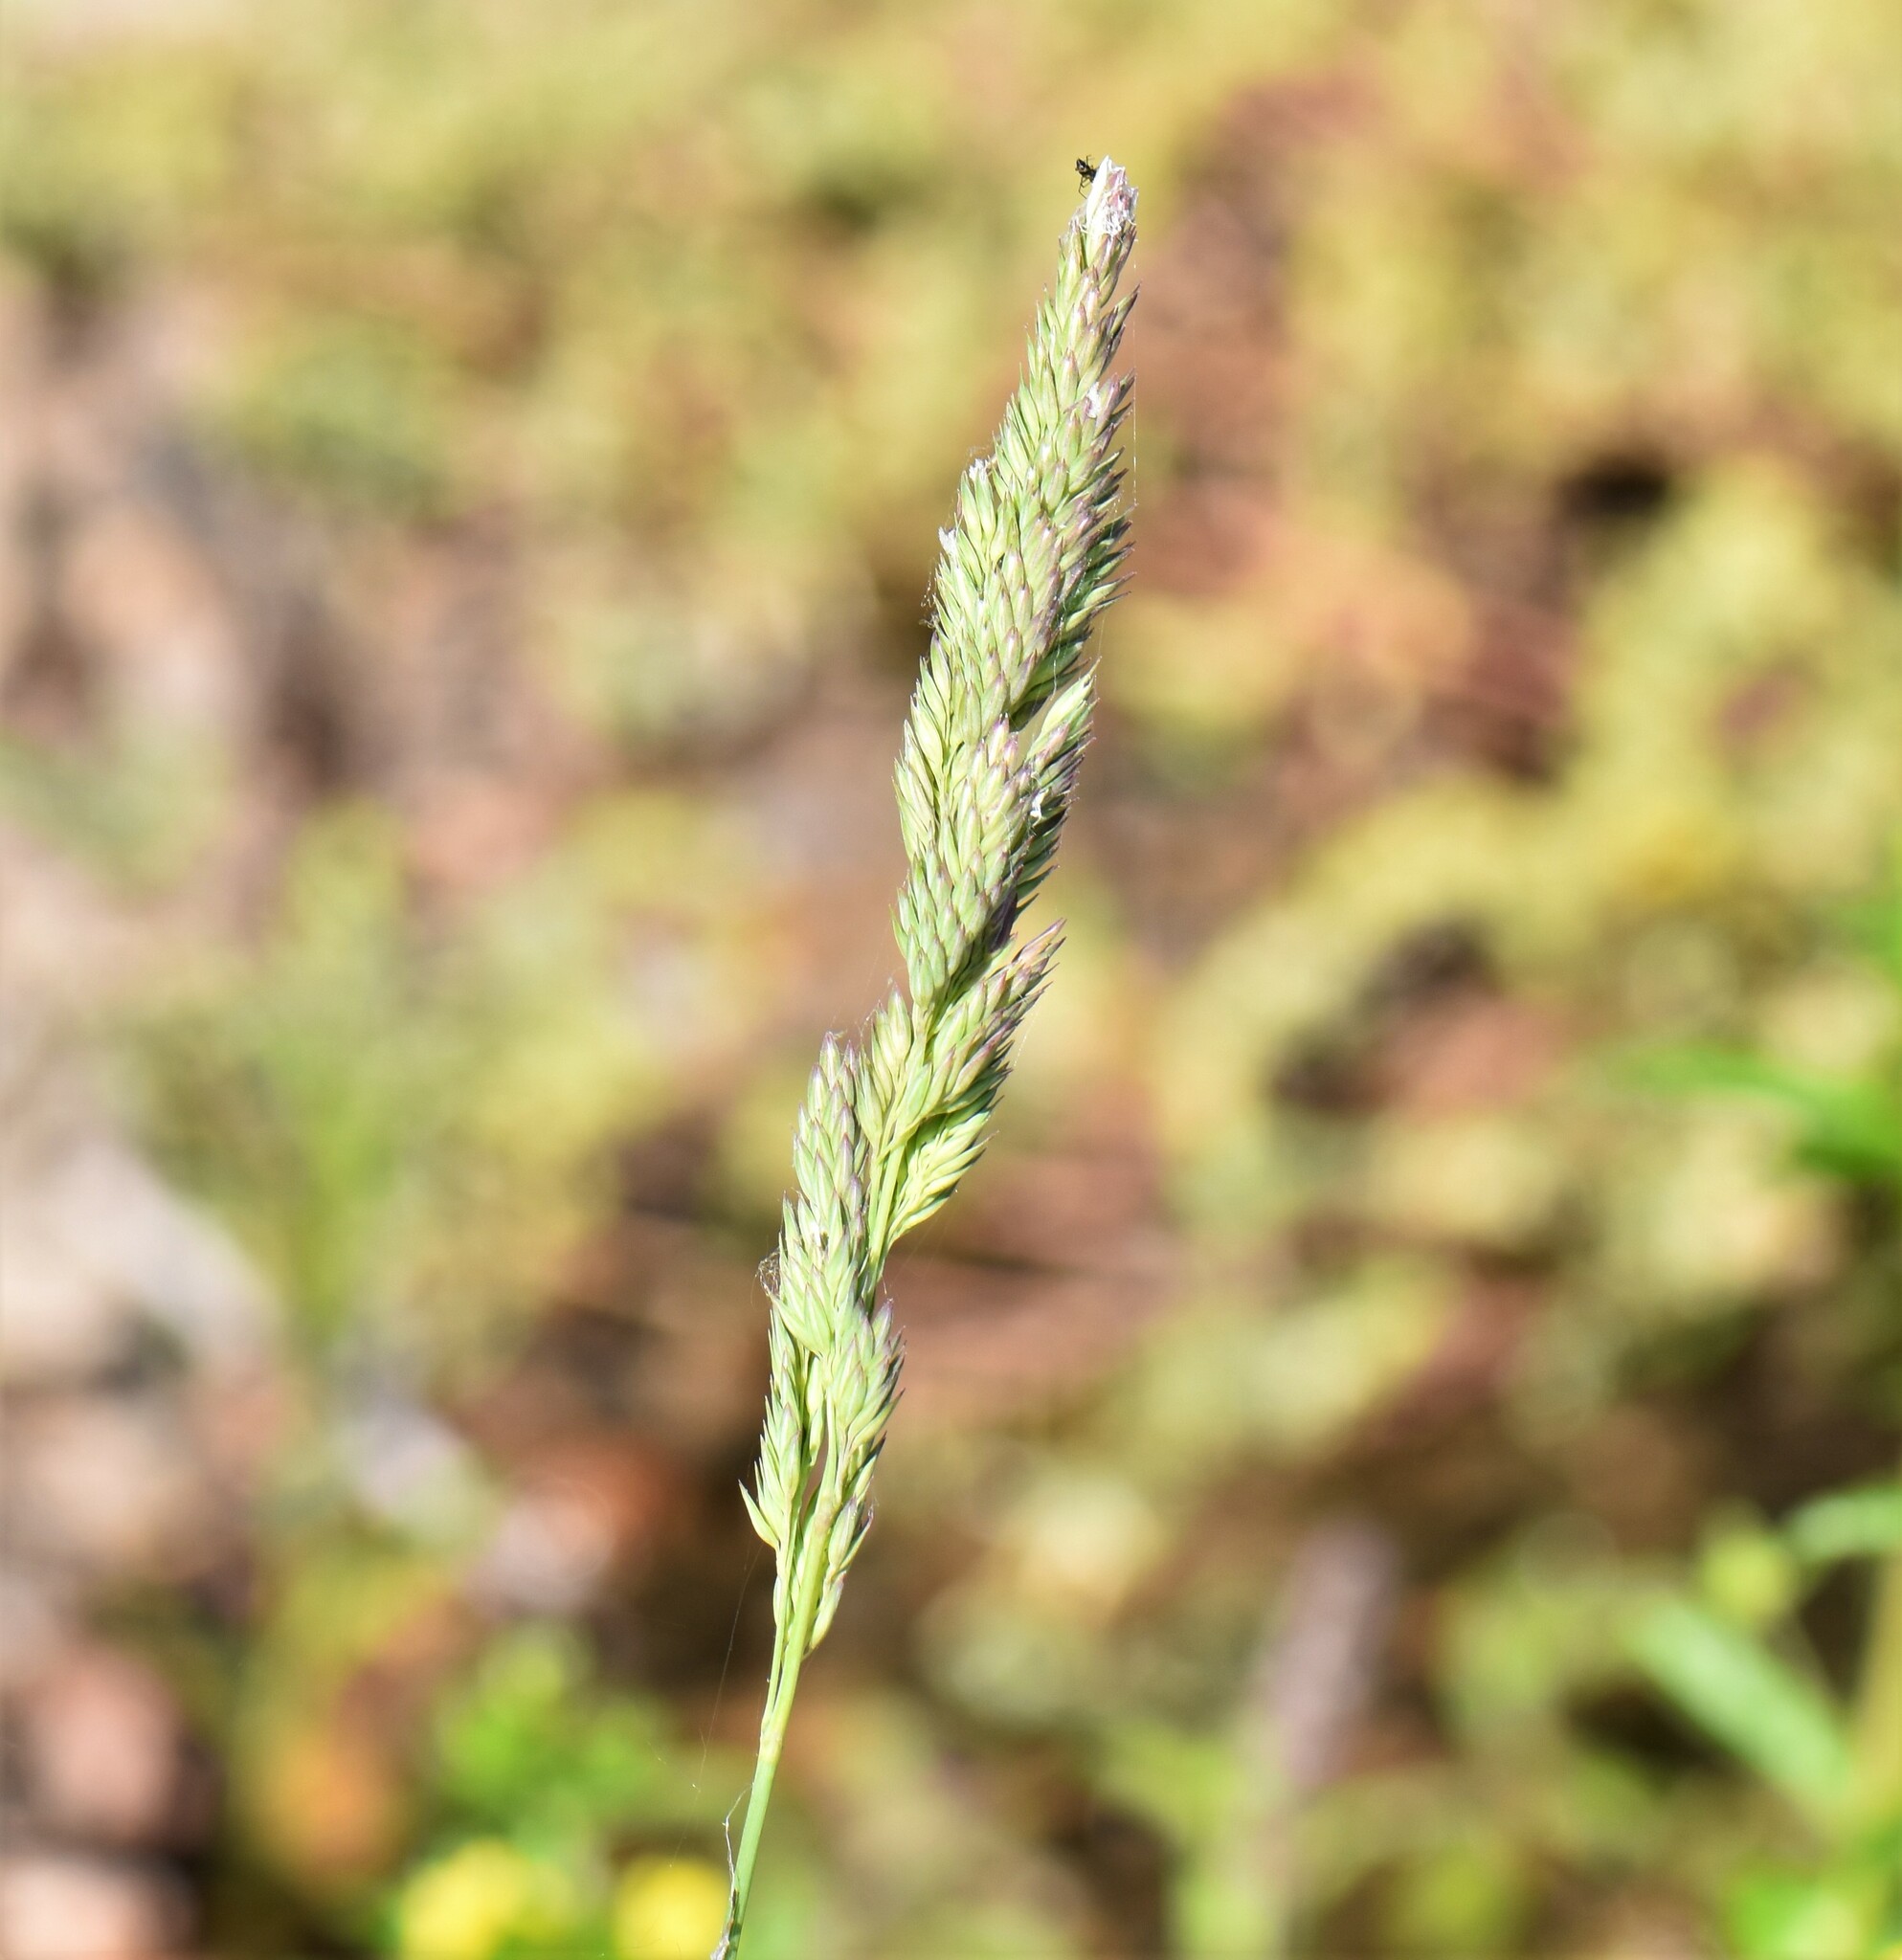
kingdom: Plantae
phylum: Tracheophyta
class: Liliopsida
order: Poales
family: Poaceae
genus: Phalaris
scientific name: Phalaris arundinacea
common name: Reed canary-grass
